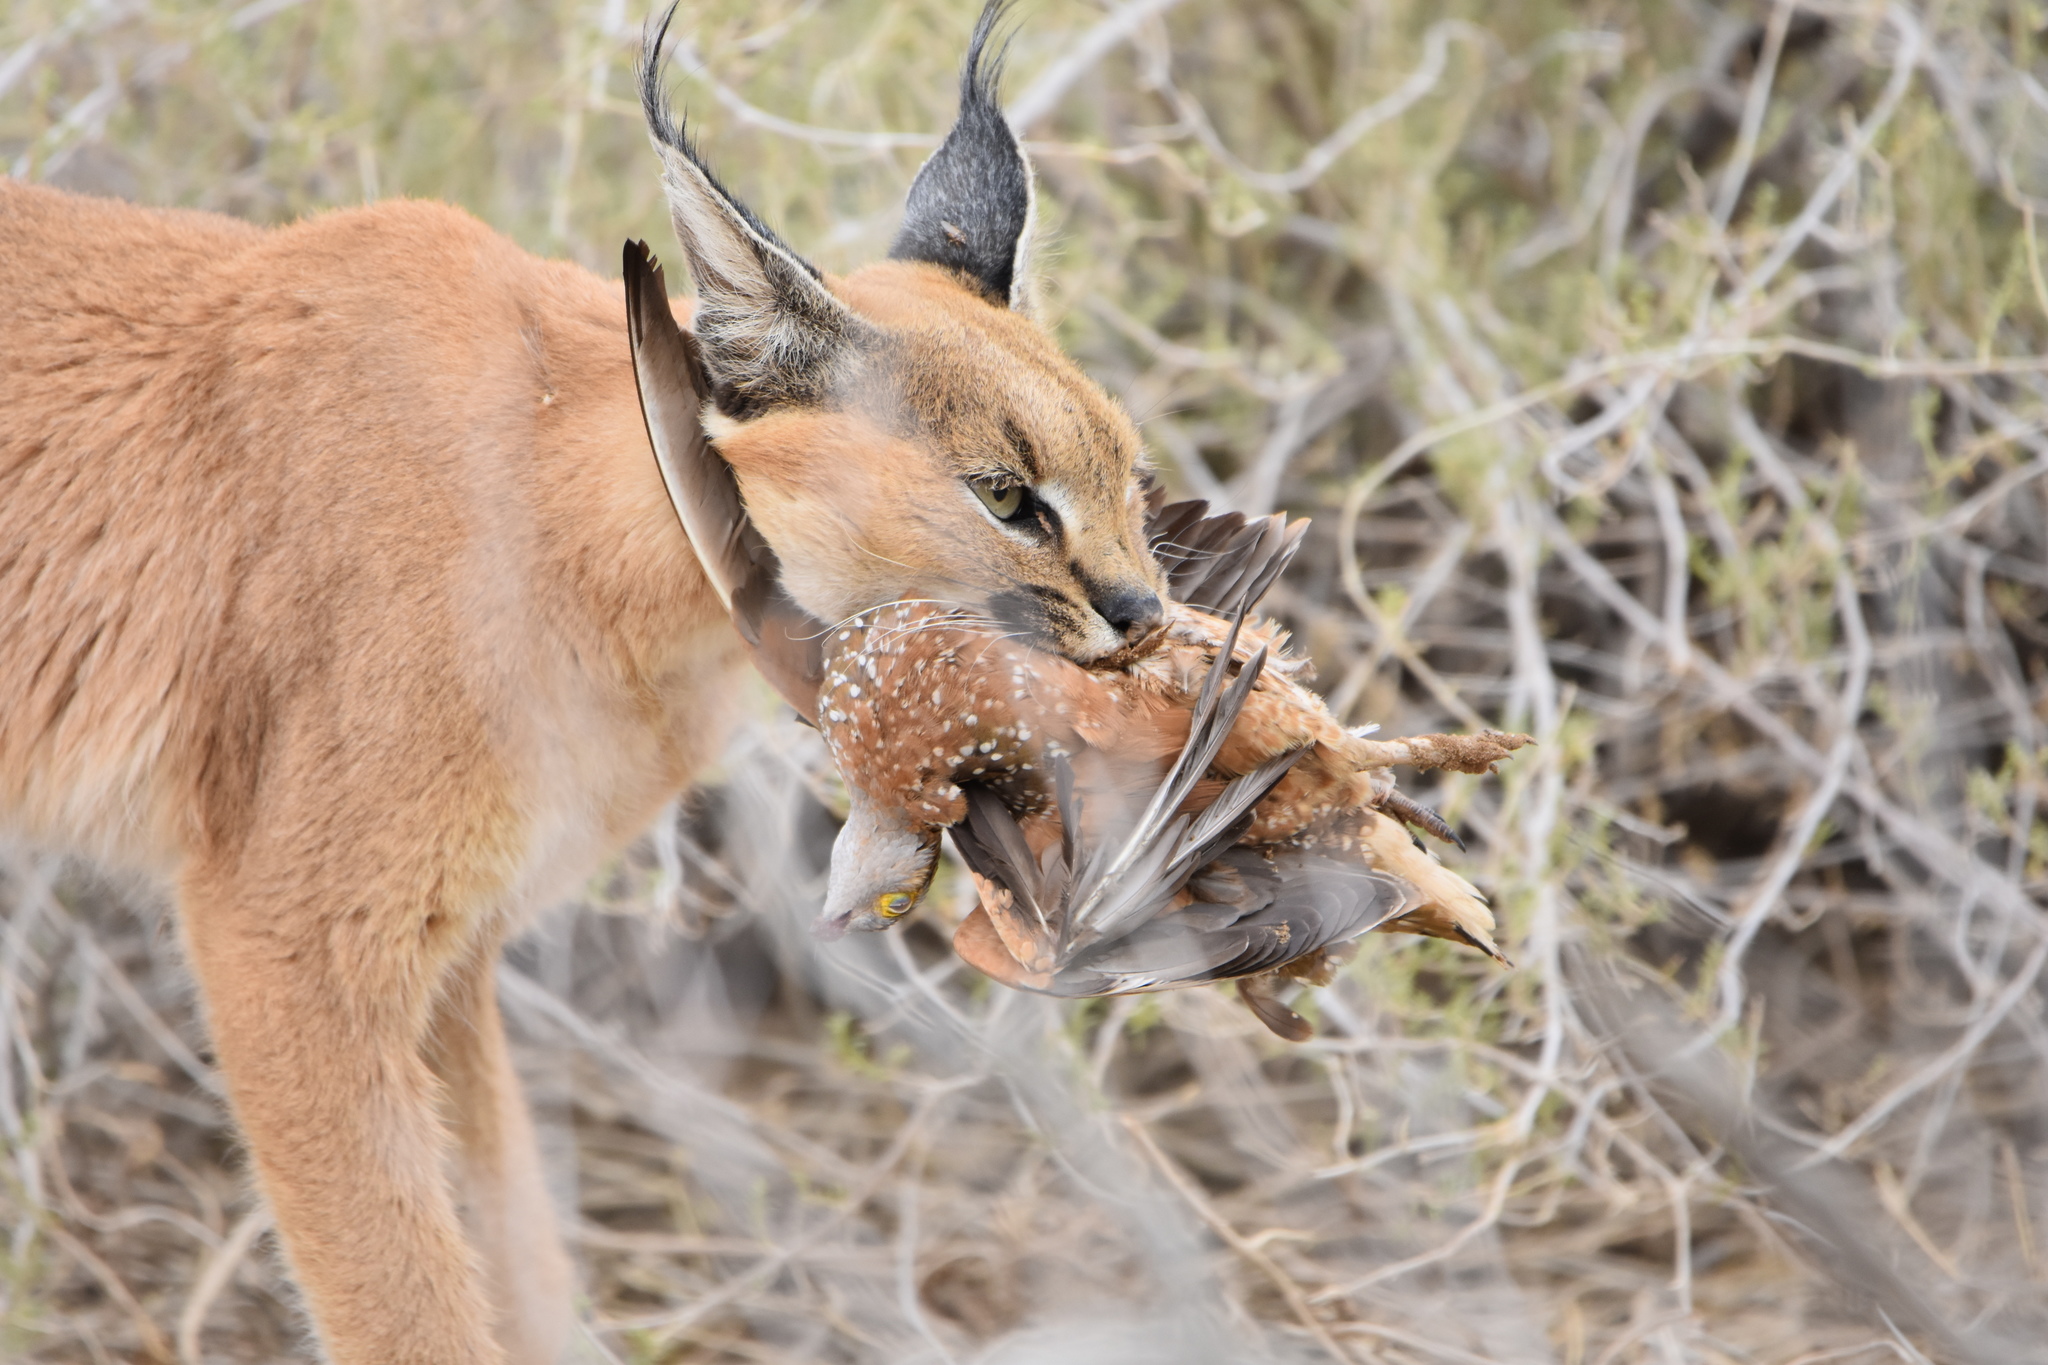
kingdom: Animalia
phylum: Chordata
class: Mammalia
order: Carnivora
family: Felidae
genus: Caracal
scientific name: Caracal caracal
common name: Caracal
